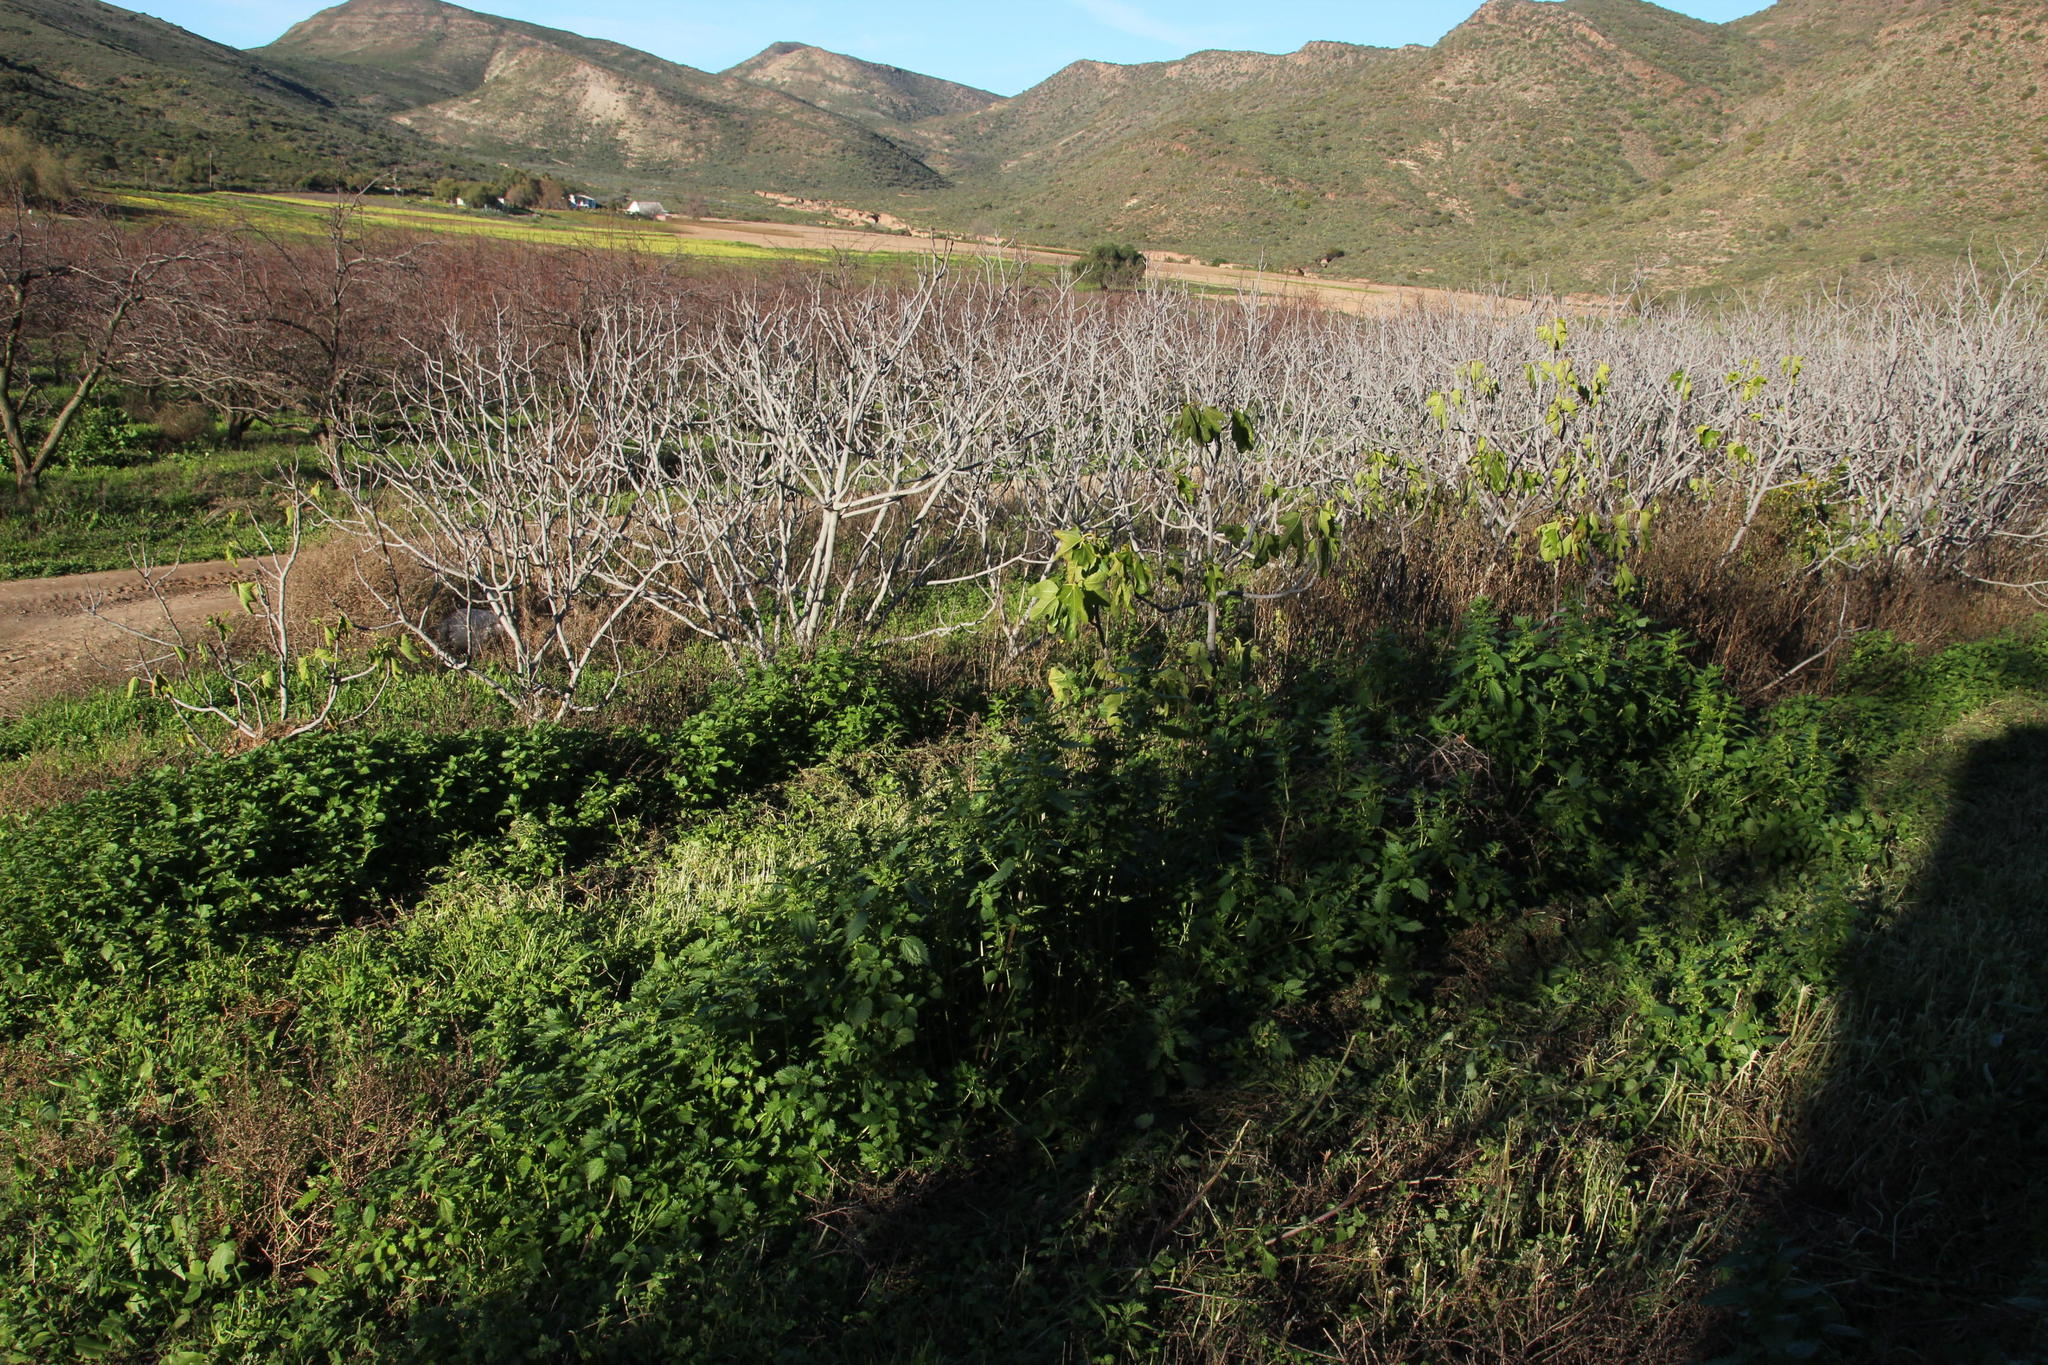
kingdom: Plantae
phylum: Tracheophyta
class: Magnoliopsida
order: Rosales
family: Urticaceae
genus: Urtica
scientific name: Urtica urens
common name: Dwarf nettle
